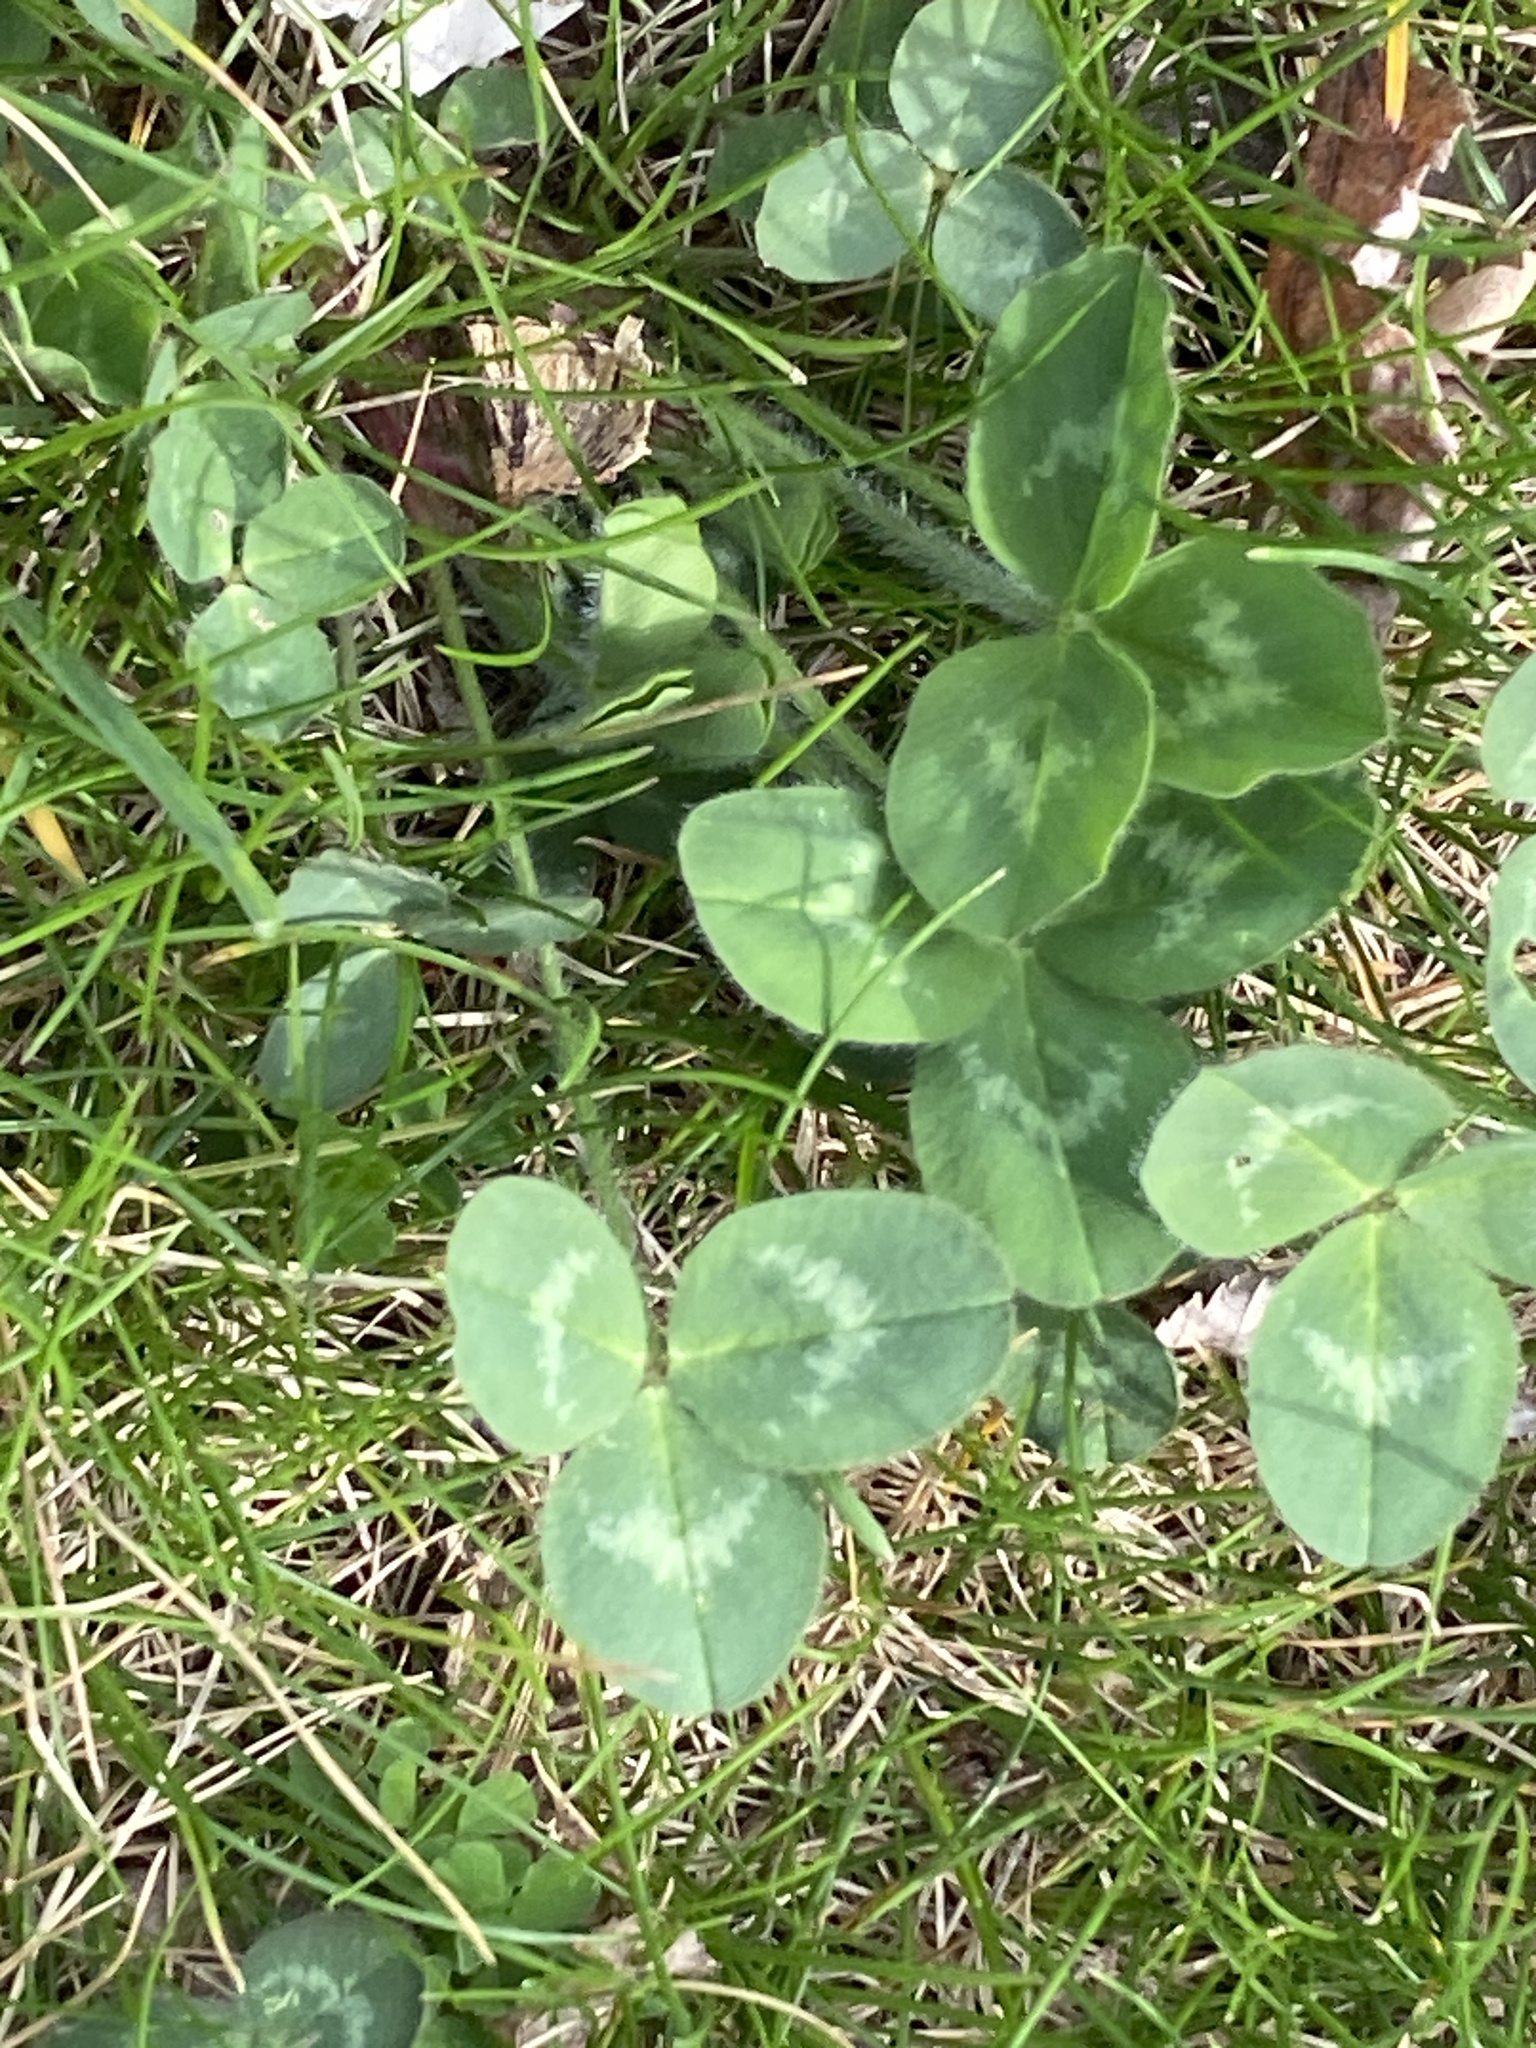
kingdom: Plantae
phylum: Tracheophyta
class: Magnoliopsida
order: Fabales
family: Fabaceae
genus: Trifolium
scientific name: Trifolium pratense
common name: Red clover
